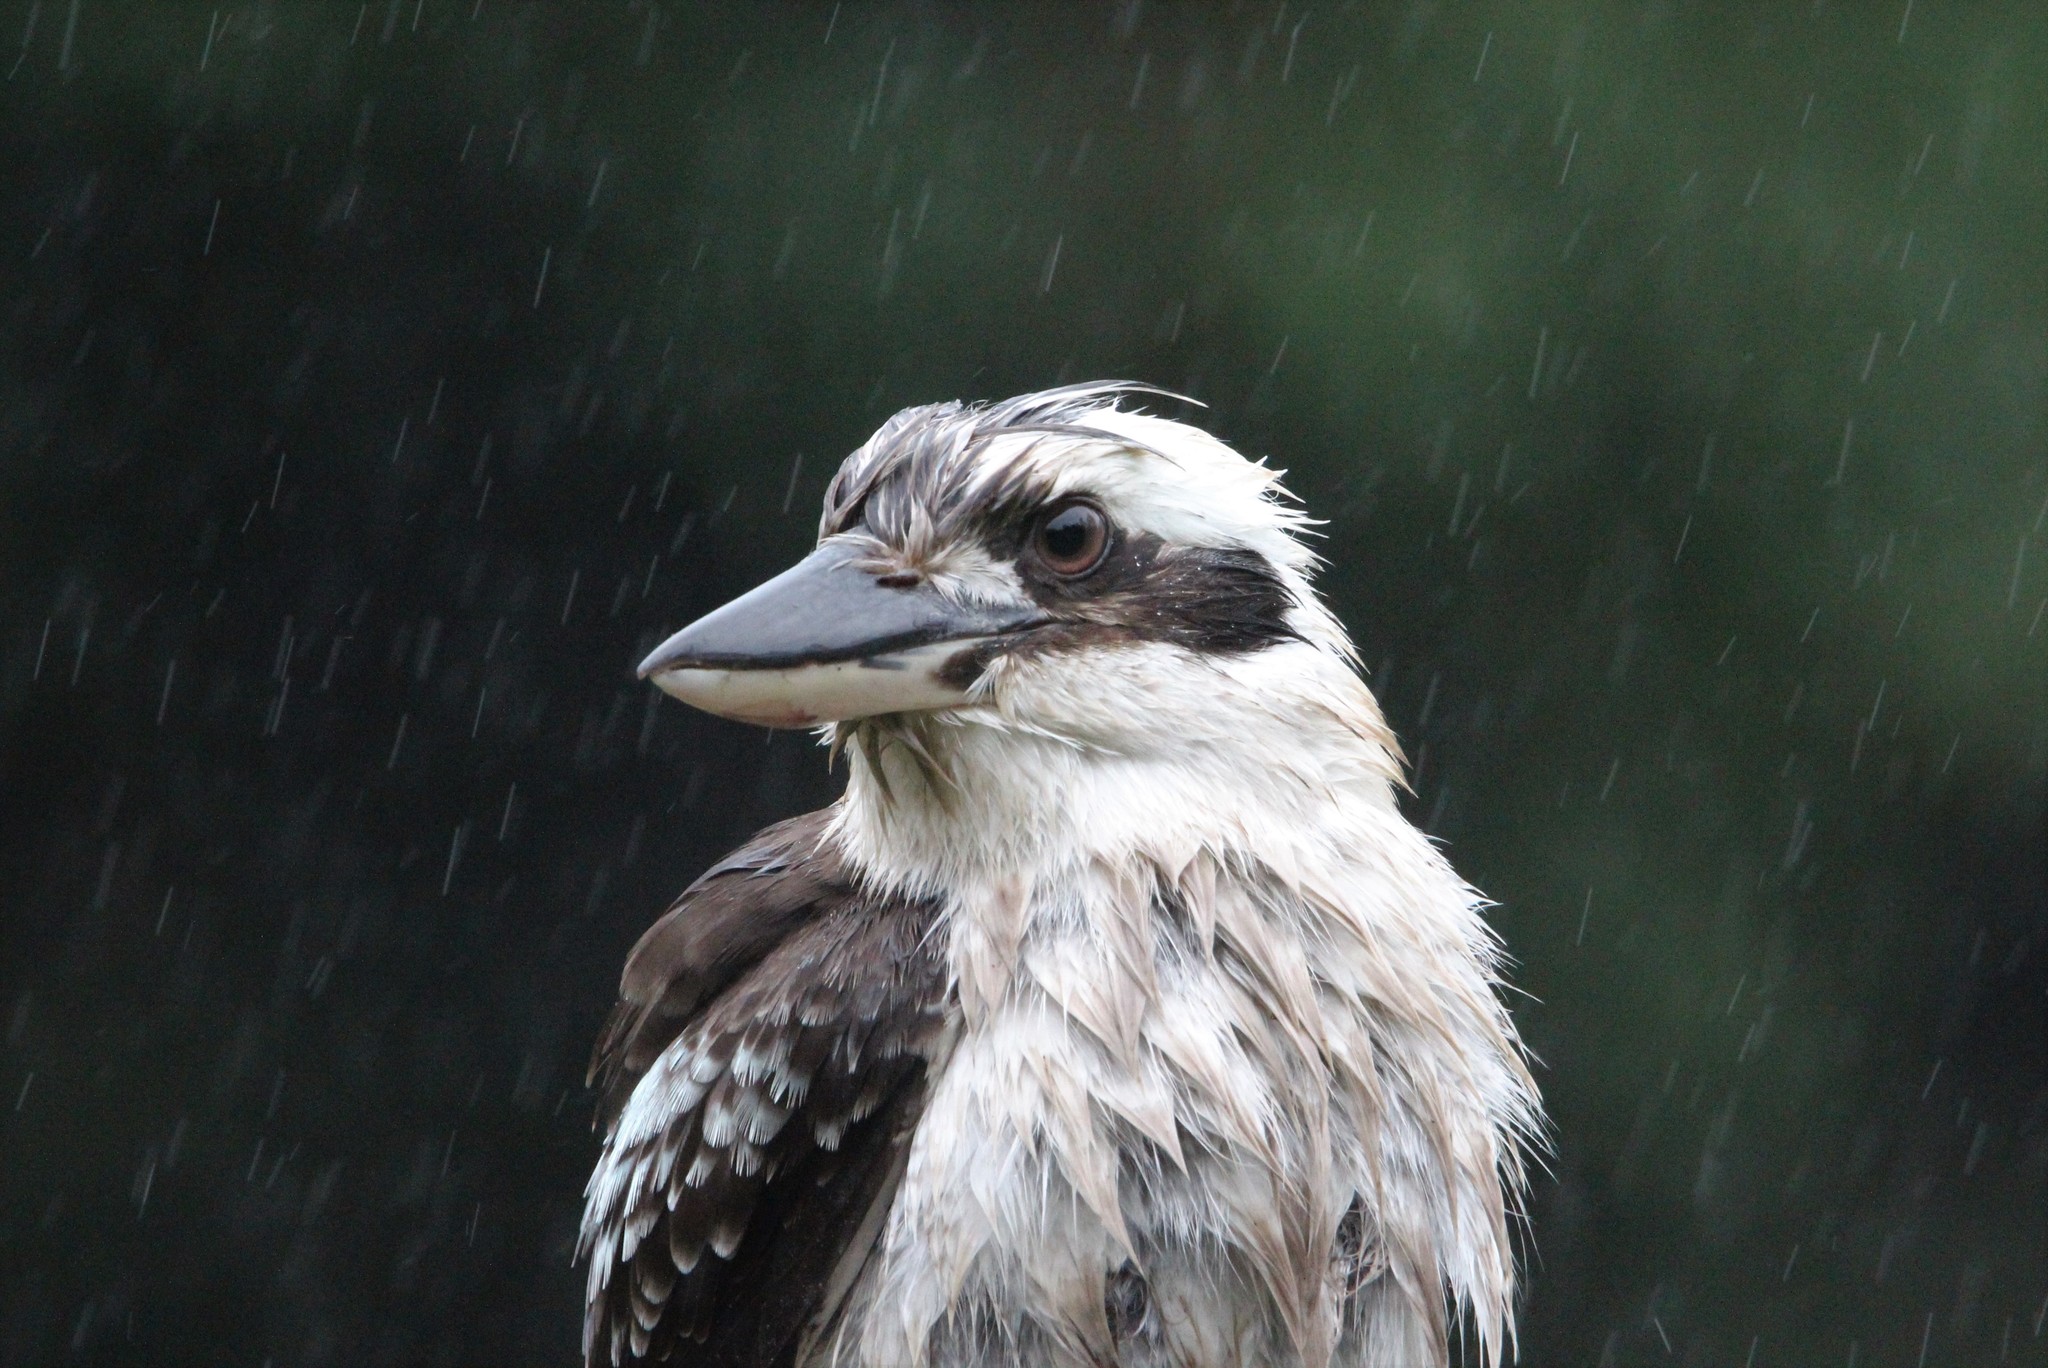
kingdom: Animalia
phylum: Chordata
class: Aves
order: Coraciiformes
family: Alcedinidae
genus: Dacelo
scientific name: Dacelo novaeguineae
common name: Laughing kookaburra
